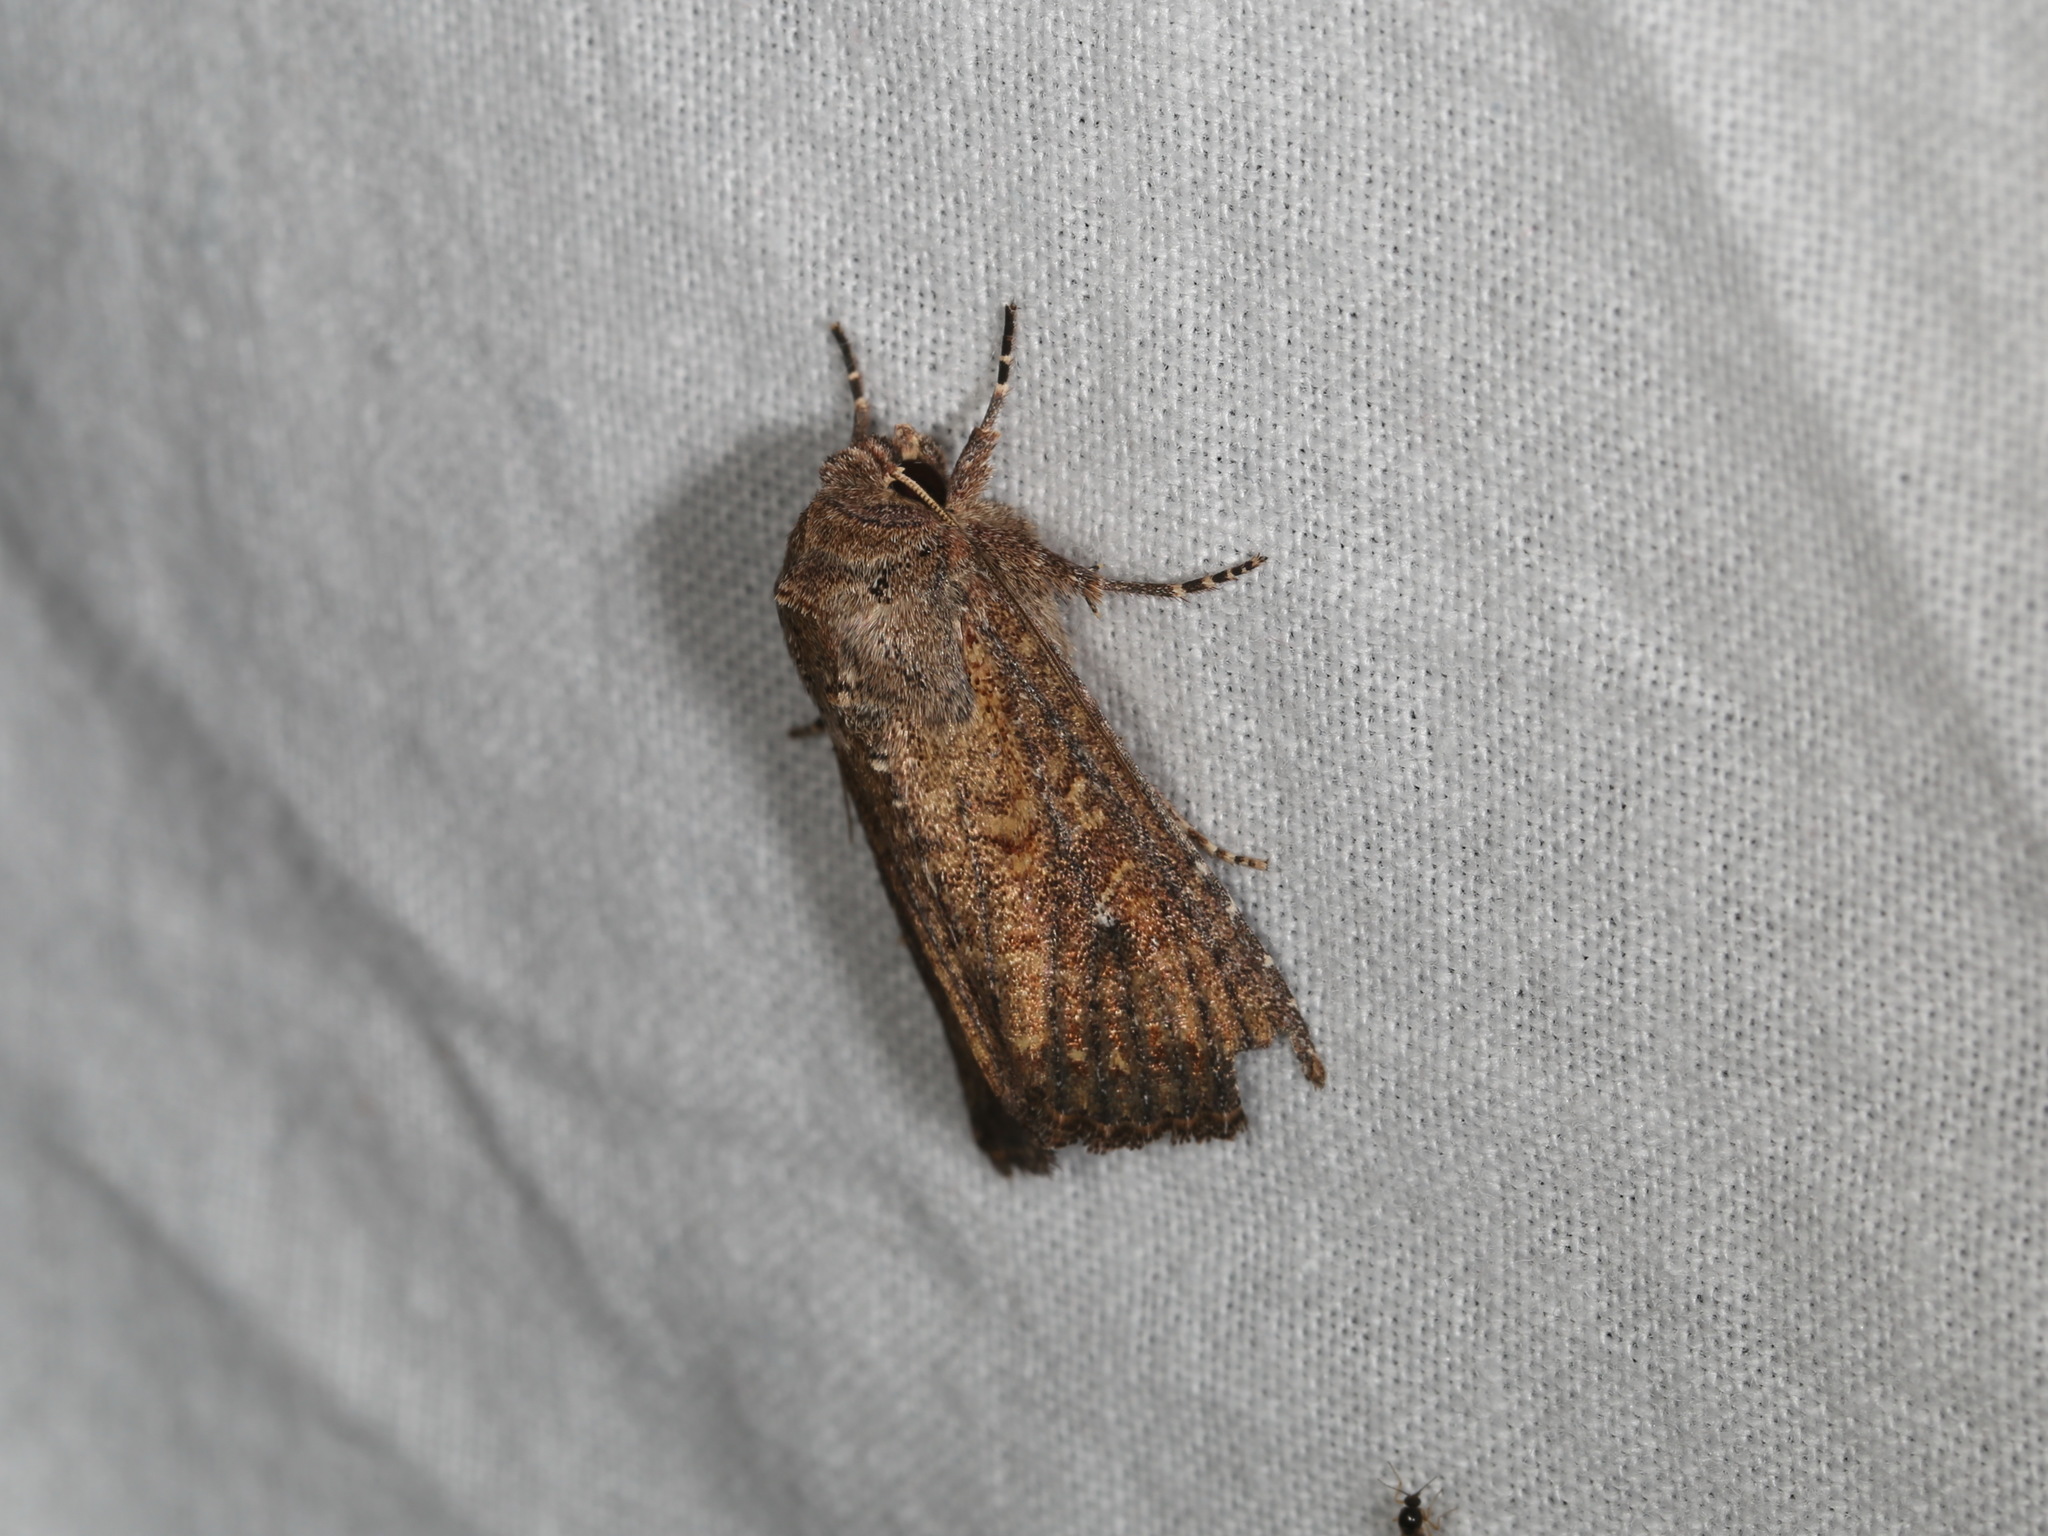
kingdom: Animalia
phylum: Arthropoda
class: Insecta
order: Lepidoptera
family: Noctuidae
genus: Dasygaster
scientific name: Dasygaster padockina
